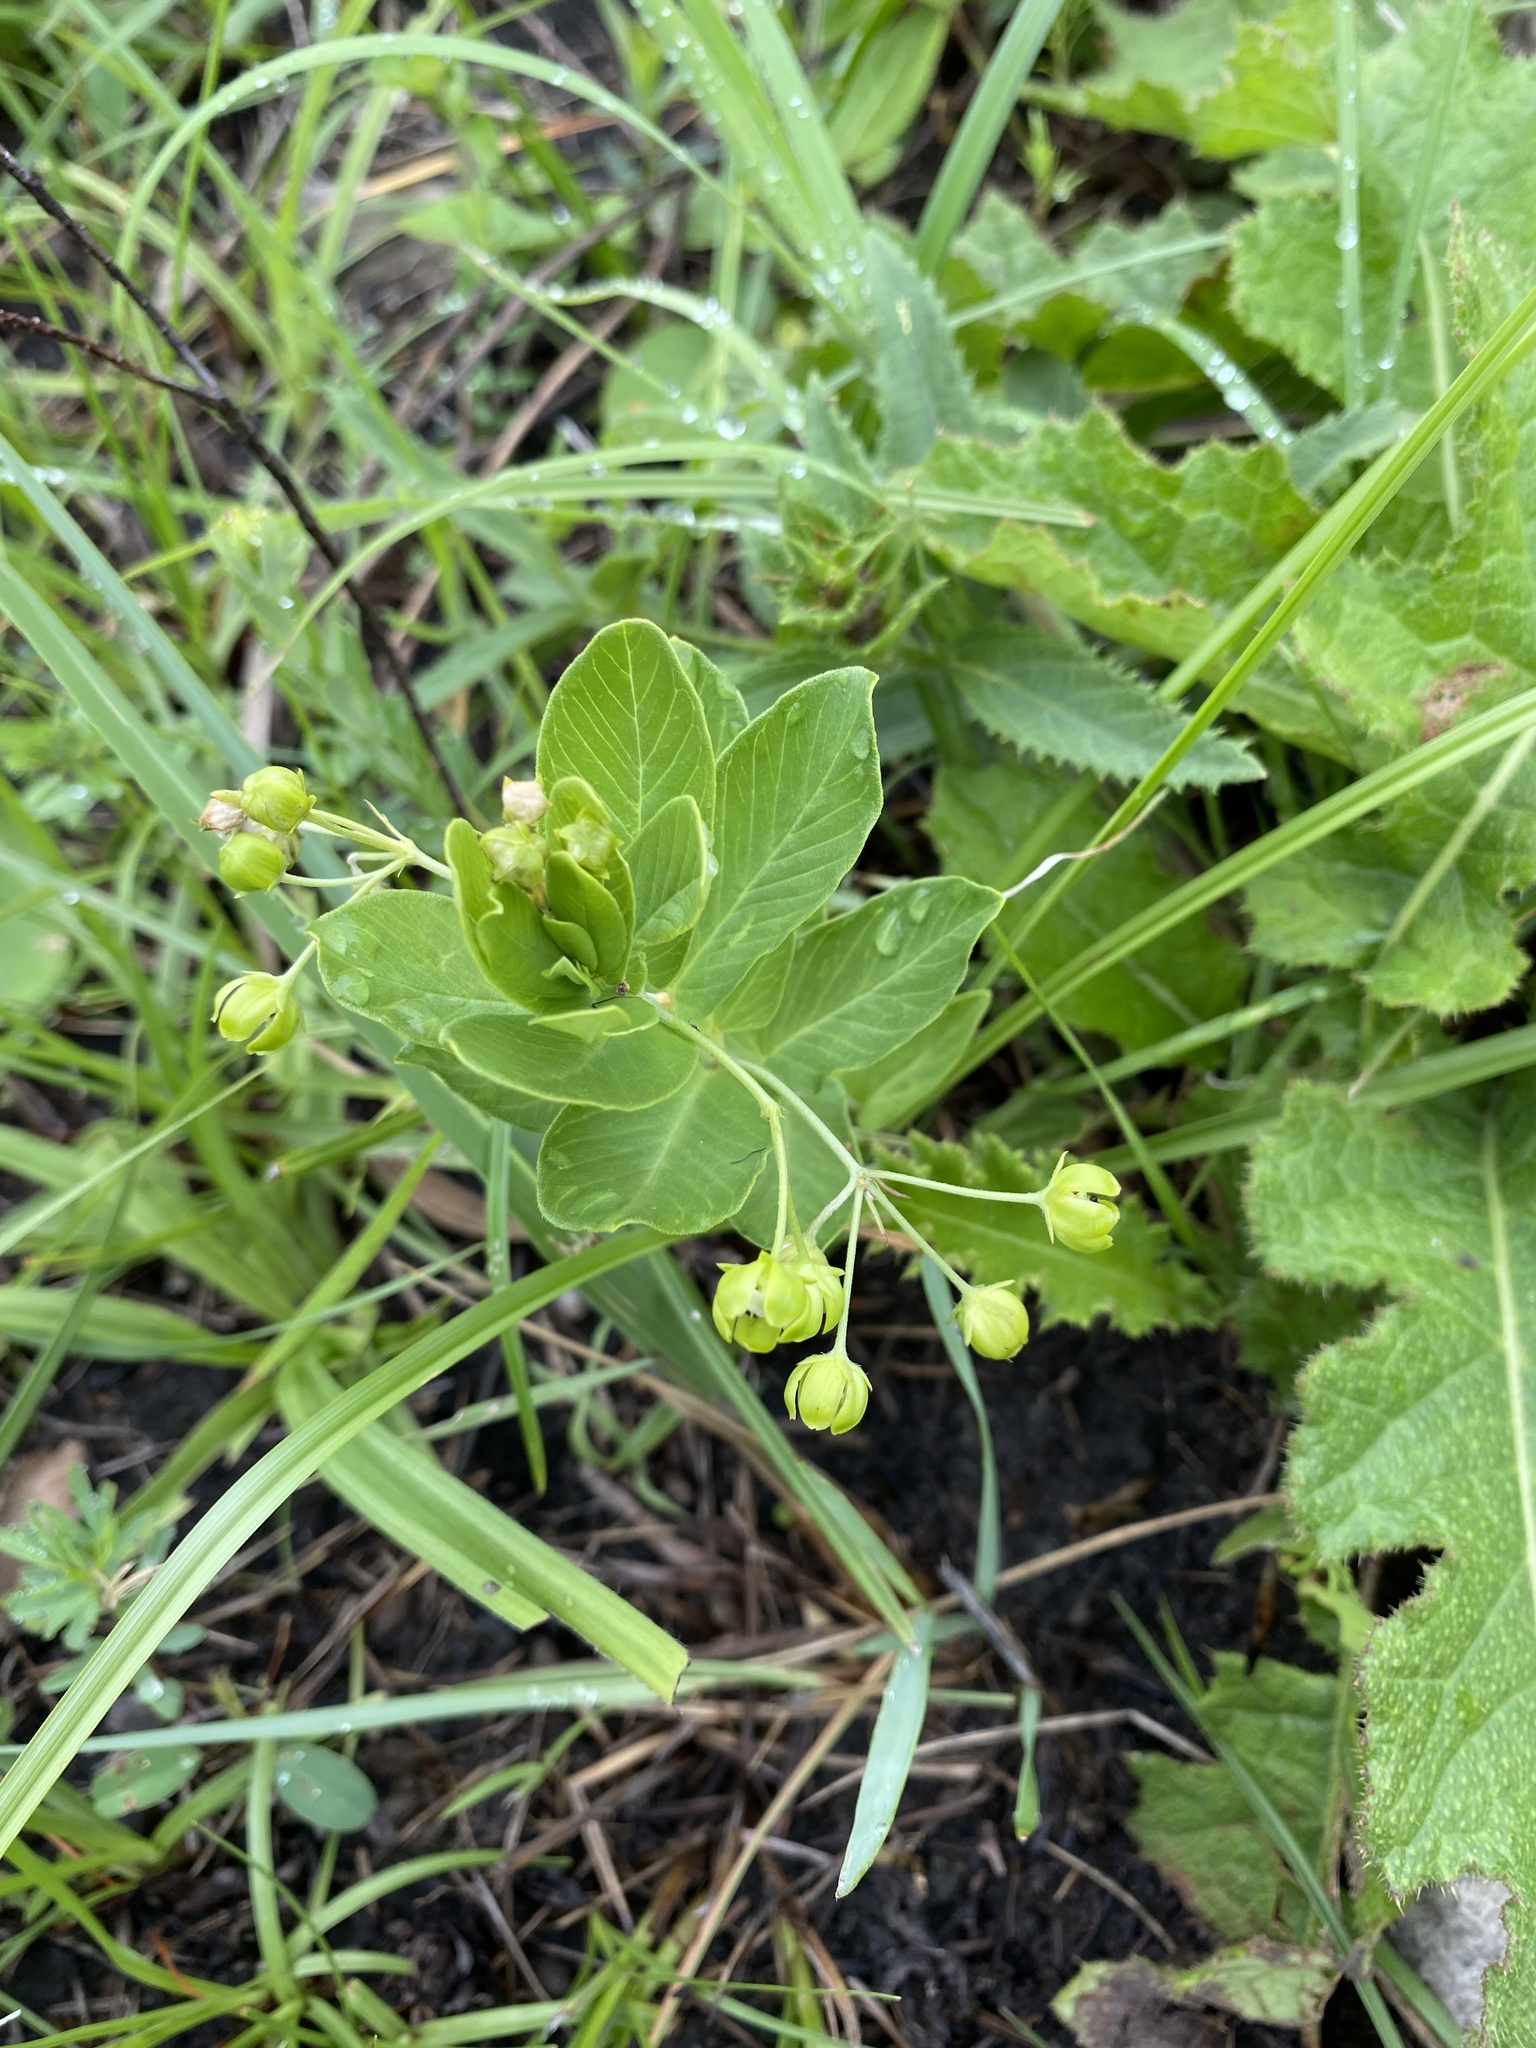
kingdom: Plantae
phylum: Tracheophyta
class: Magnoliopsida
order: Gentianales
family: Apocynaceae
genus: Schizoglossum
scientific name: Schizoglossum atropurpureum
